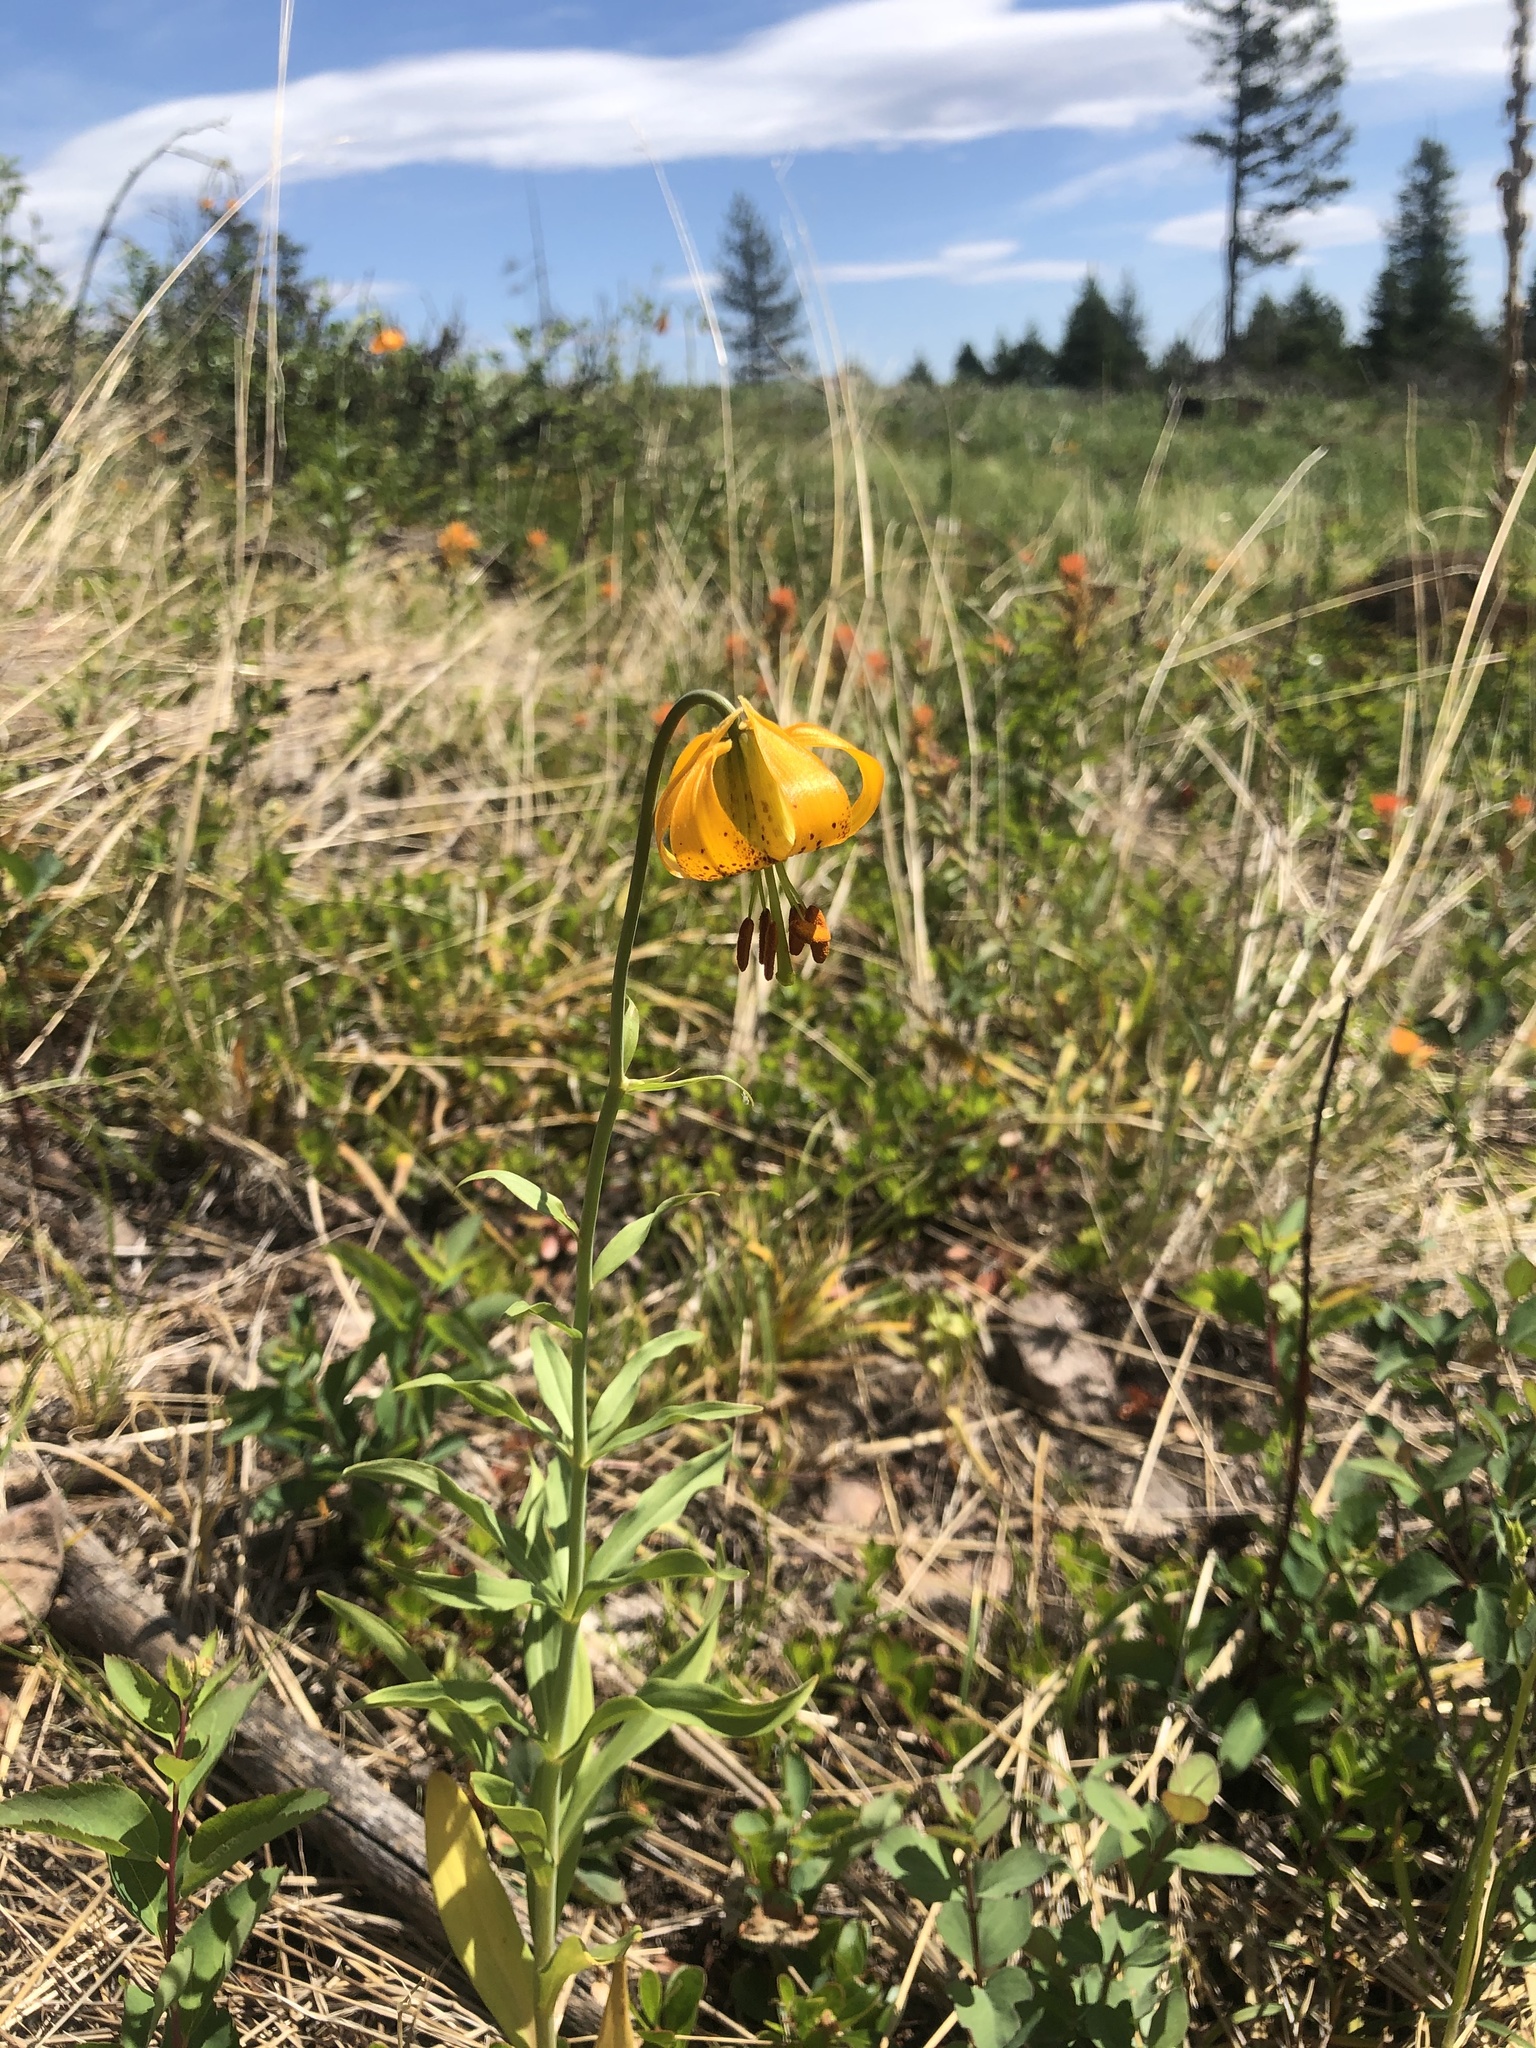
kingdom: Plantae
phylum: Tracheophyta
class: Liliopsida
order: Liliales
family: Liliaceae
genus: Lilium
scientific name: Lilium columbianum
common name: Columbia lily
